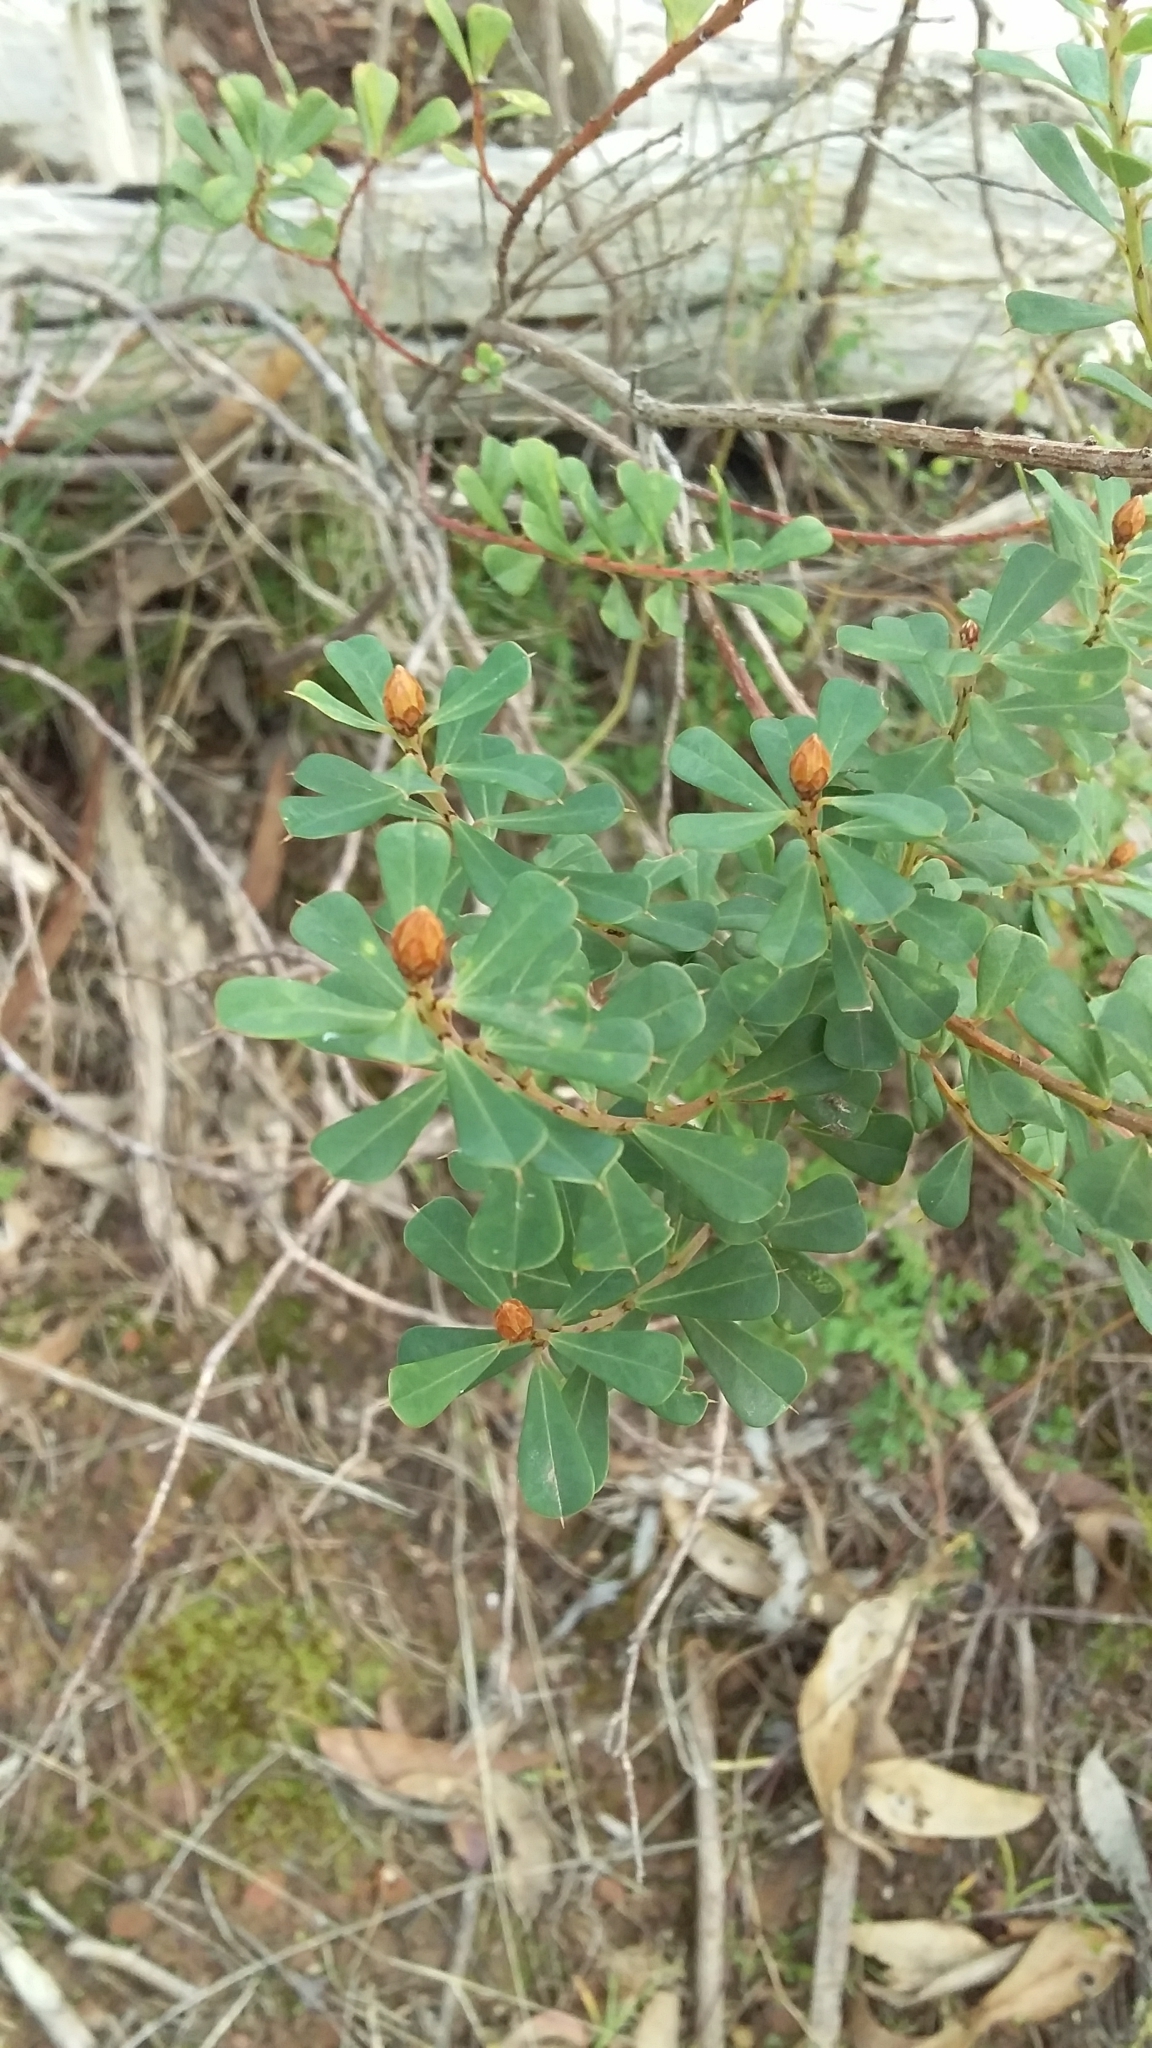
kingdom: Plantae
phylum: Tracheophyta
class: Magnoliopsida
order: Fabales
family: Fabaceae
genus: Pultenaea
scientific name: Pultenaea daphnoides
